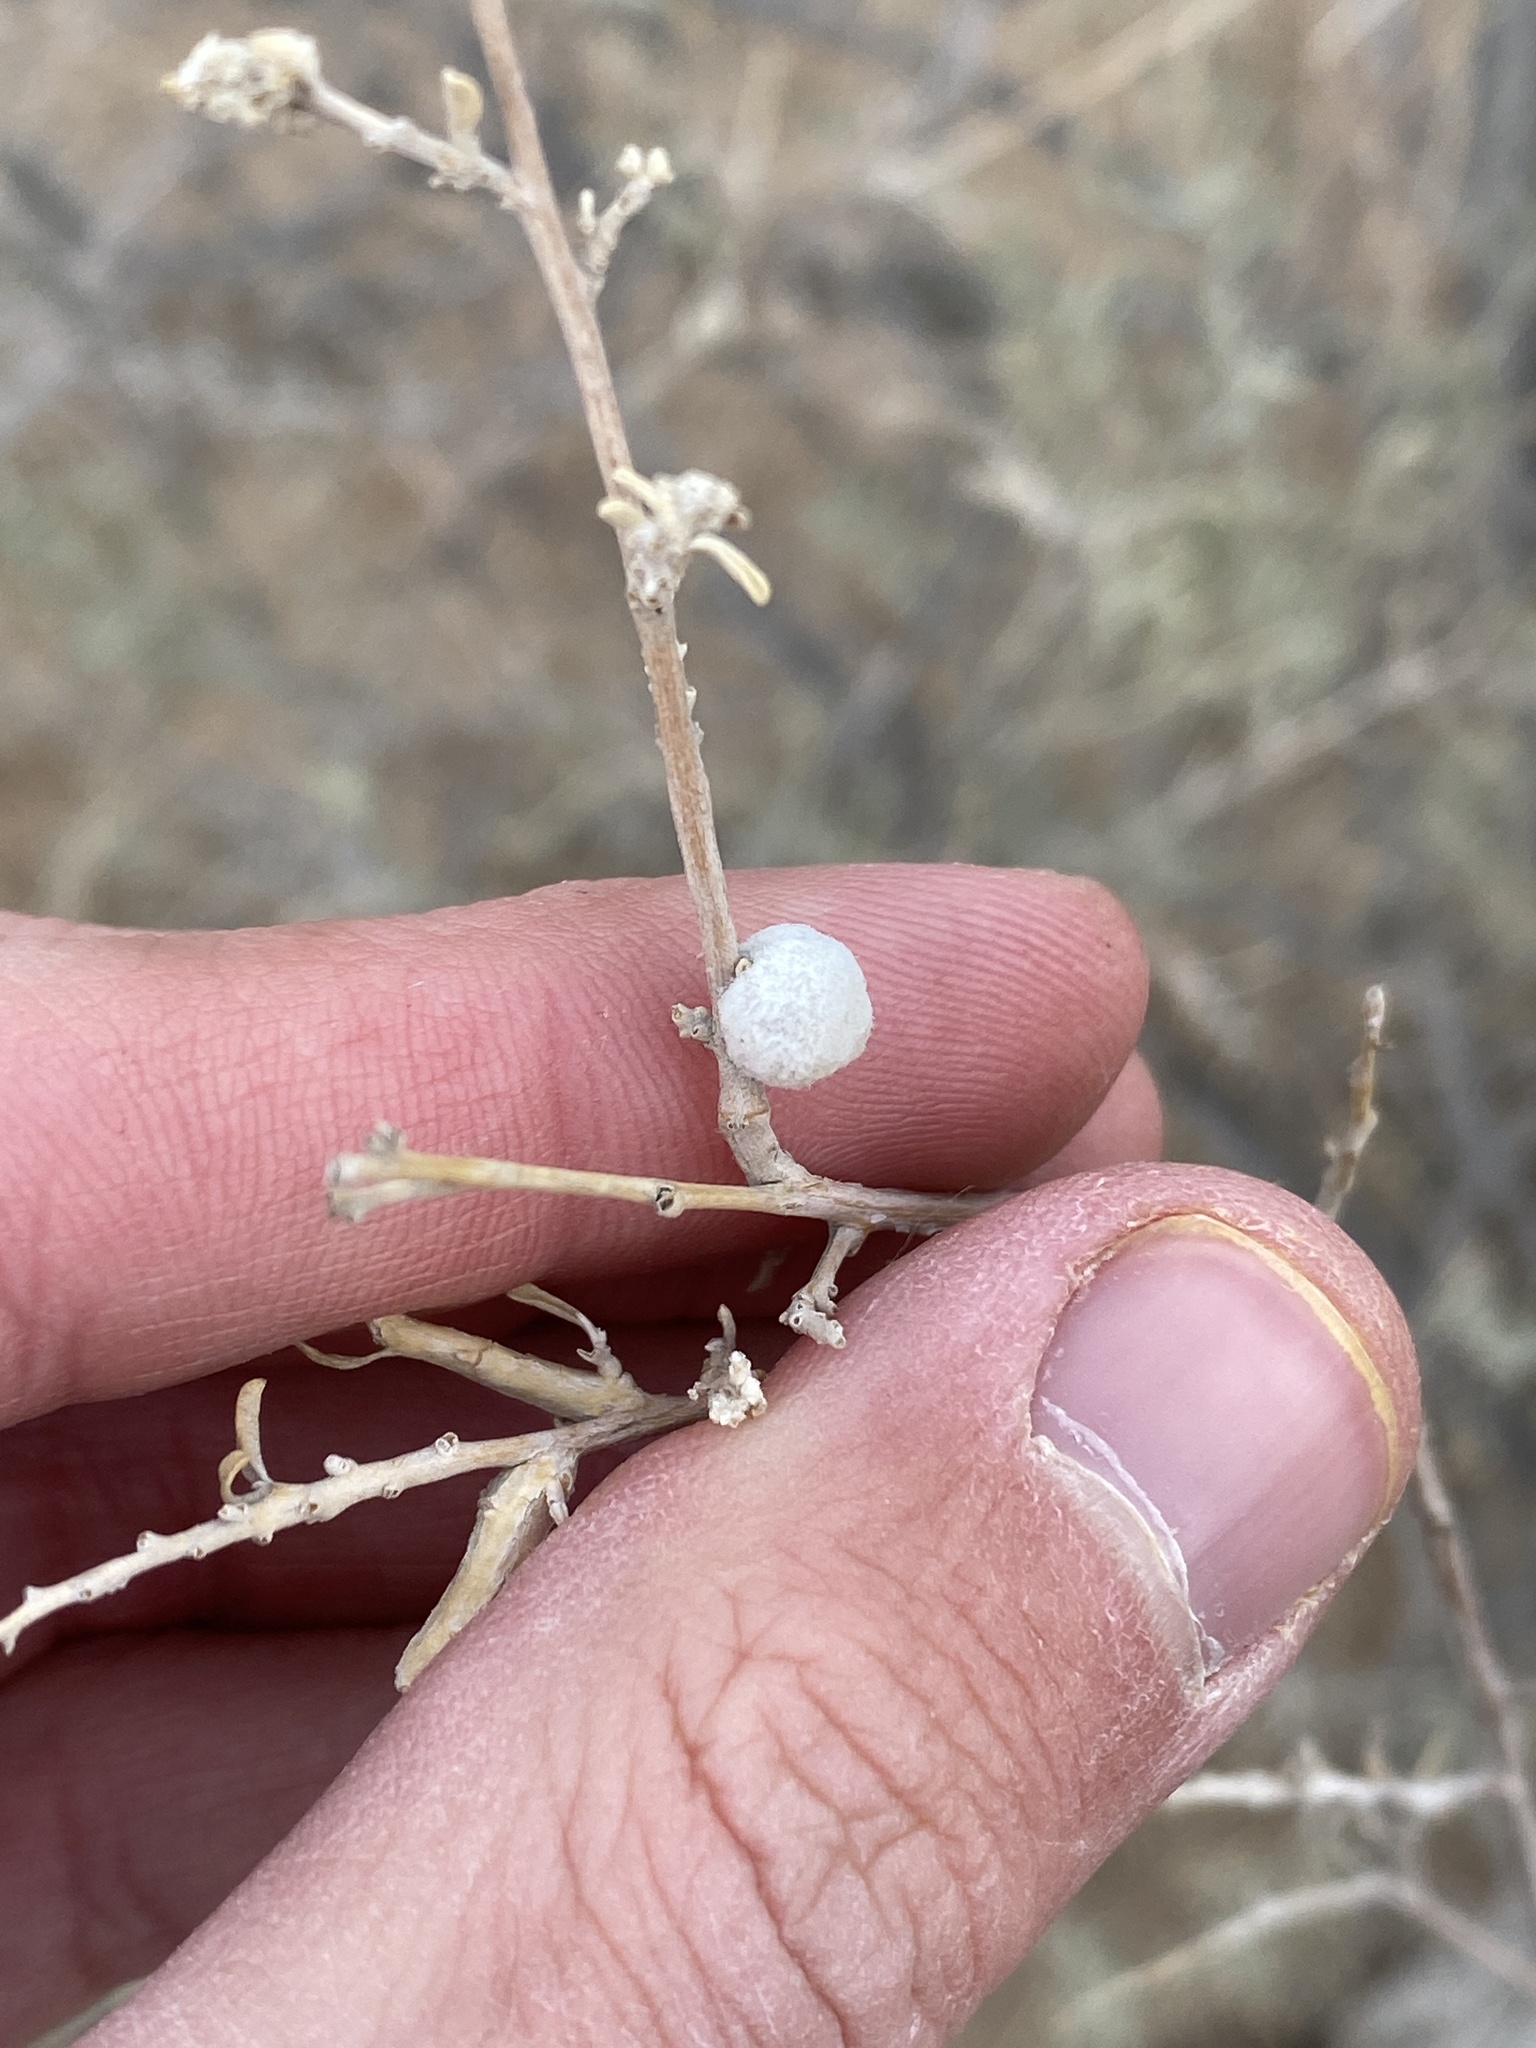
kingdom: Animalia
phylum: Arthropoda
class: Insecta
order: Diptera
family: Cecidomyiidae
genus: Asphondylia
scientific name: Asphondylia neomexicana
